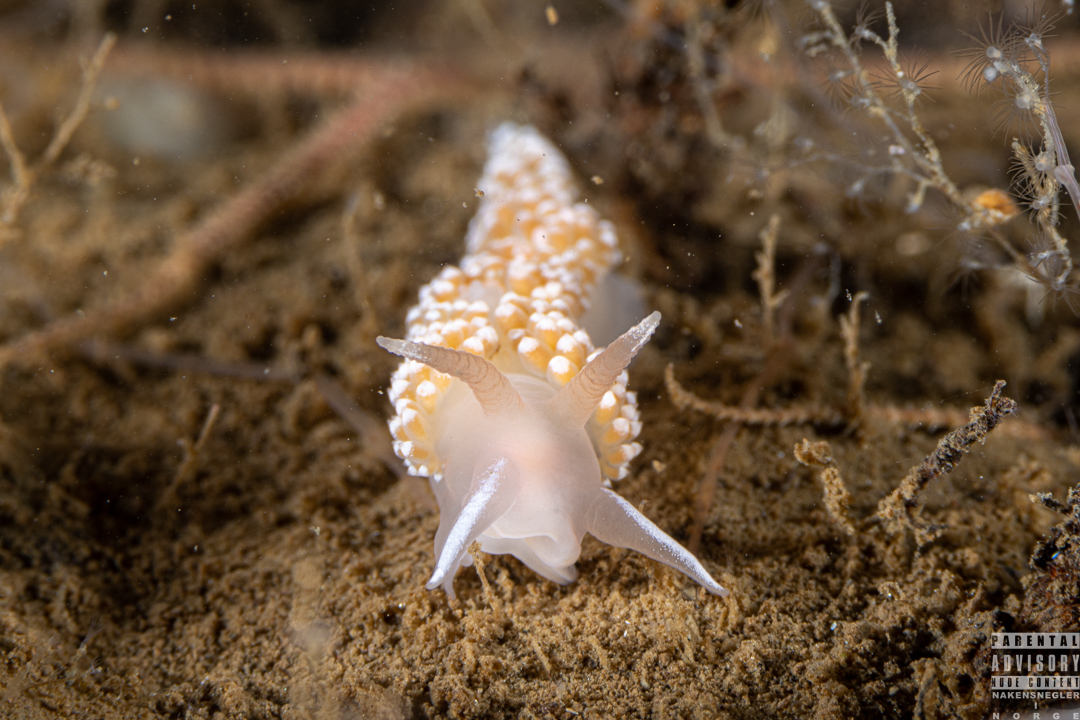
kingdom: Animalia
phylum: Mollusca
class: Gastropoda
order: Nudibranchia
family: Coryphellidae
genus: Coryphella
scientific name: Coryphella verrucosa
